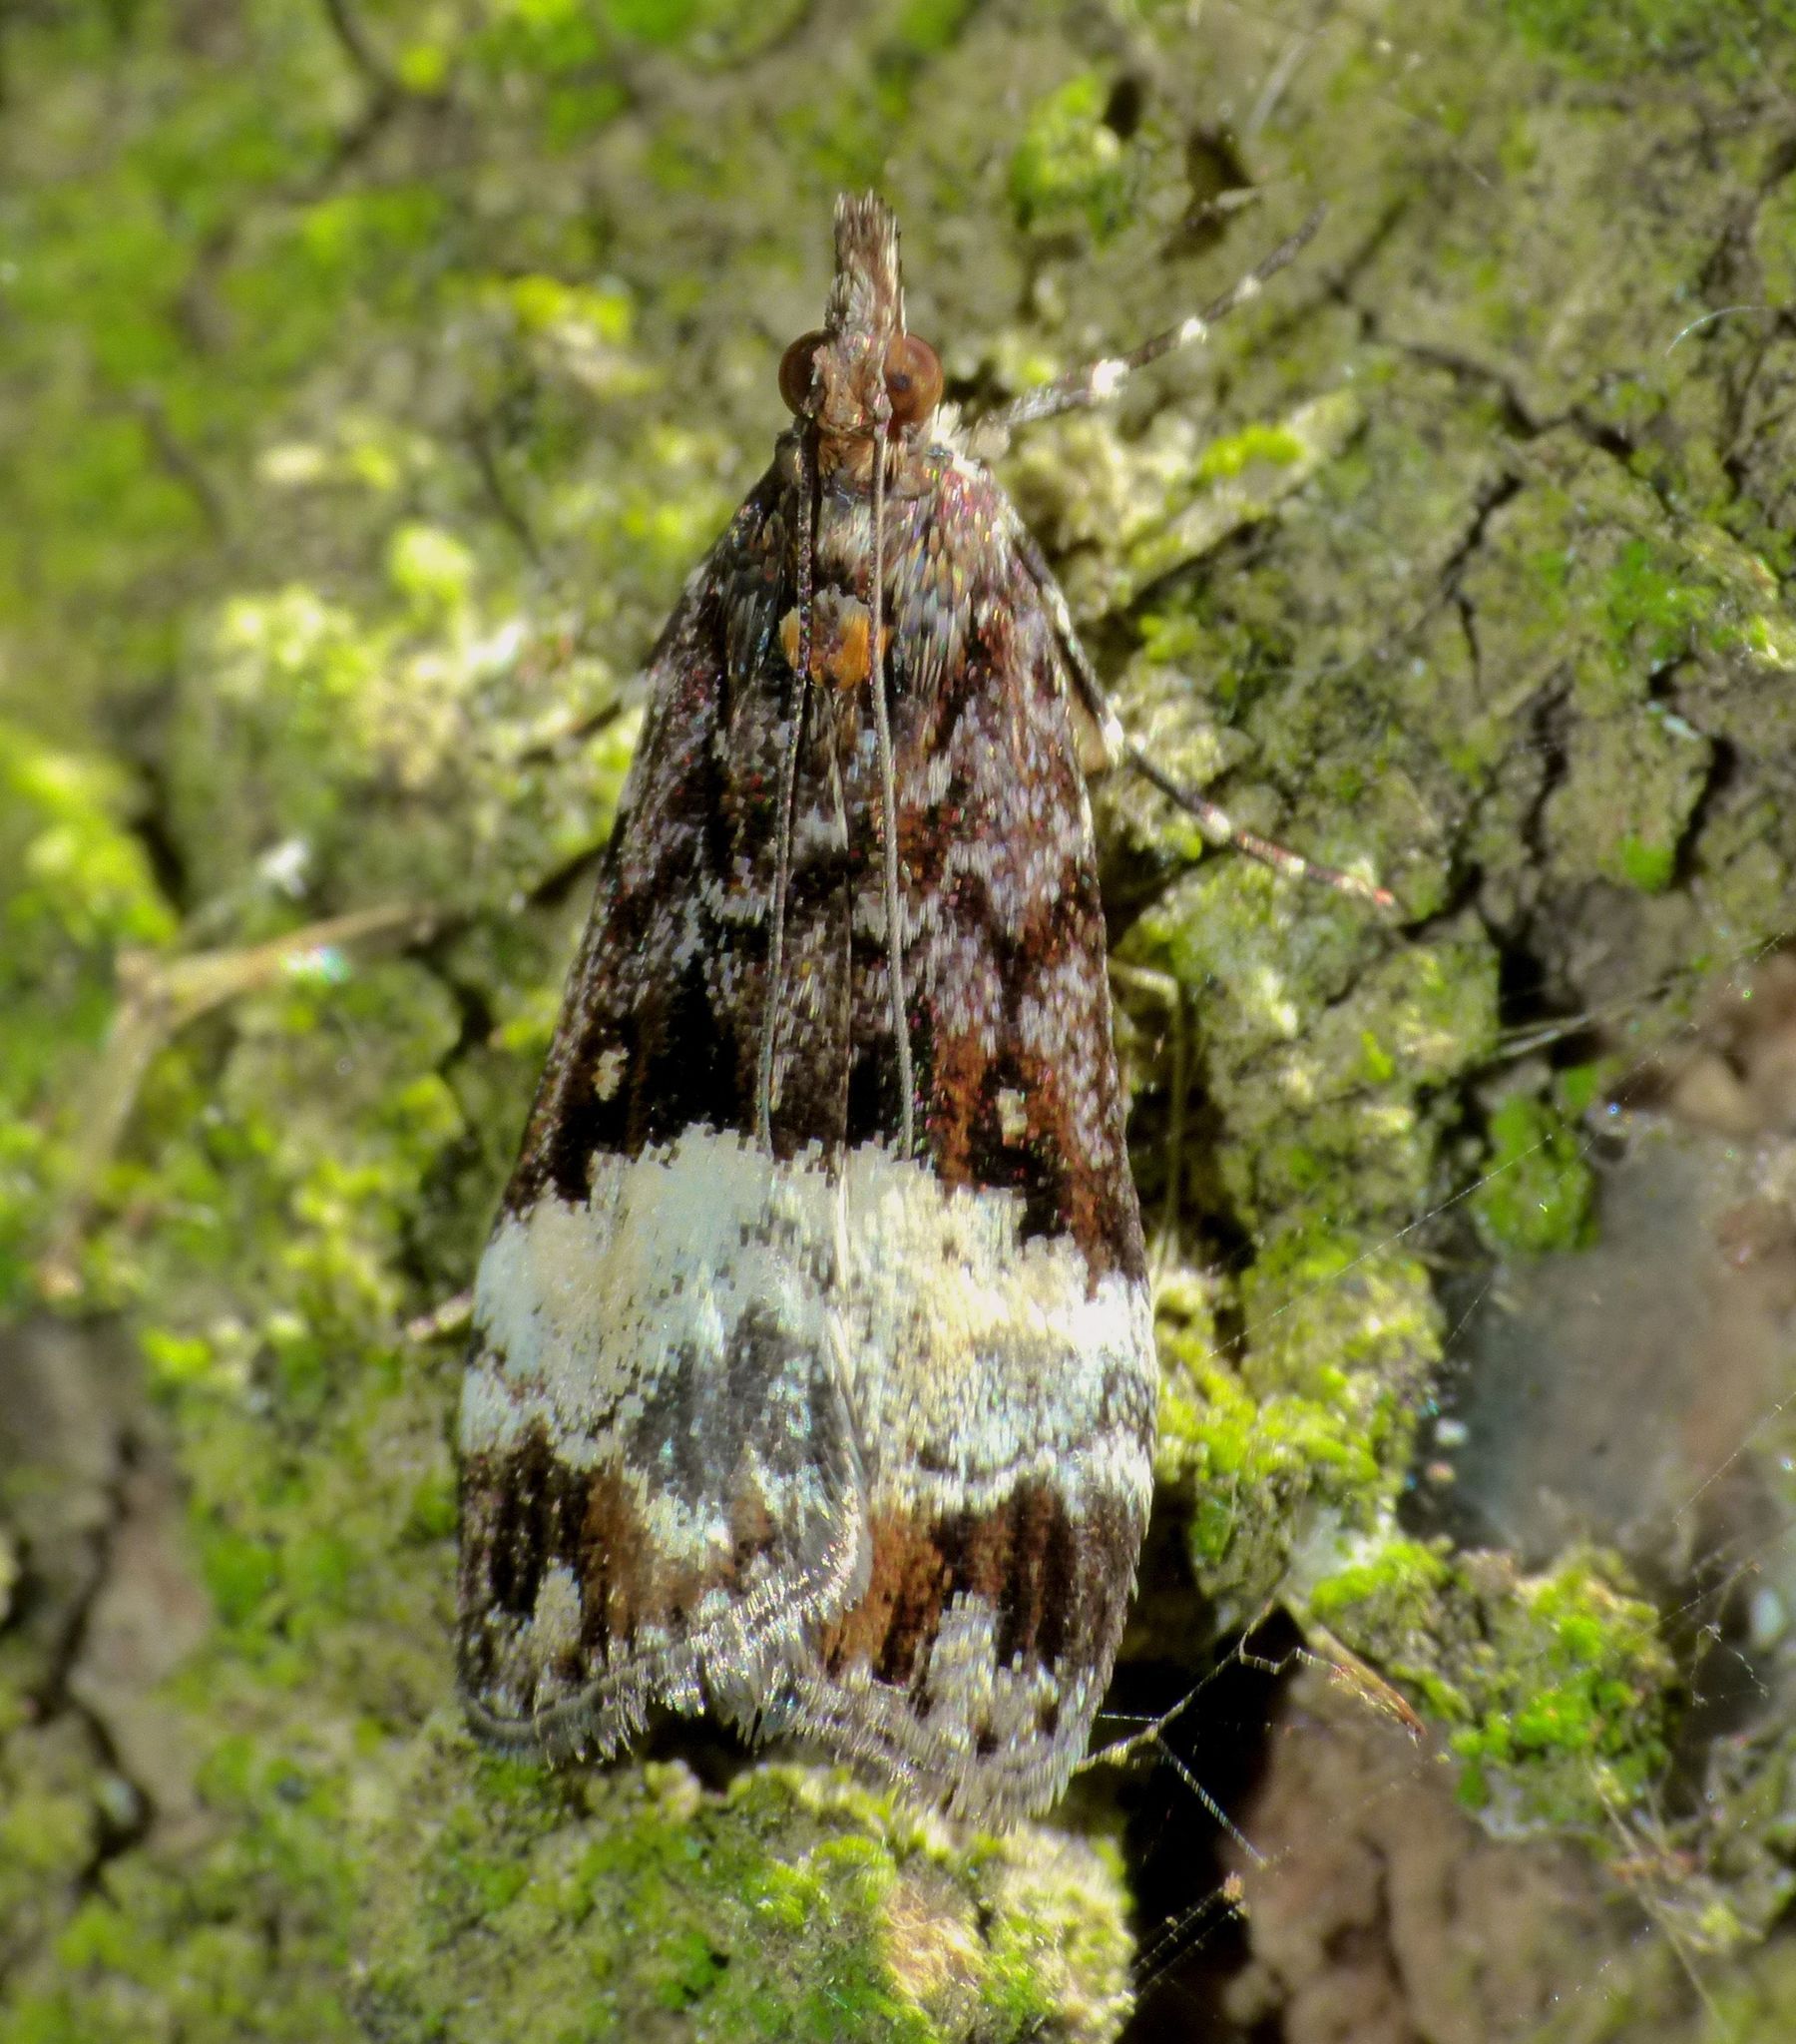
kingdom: Animalia
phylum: Arthropoda
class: Insecta
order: Lepidoptera
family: Crambidae
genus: Scoparia
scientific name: Scoparia minusculalis
